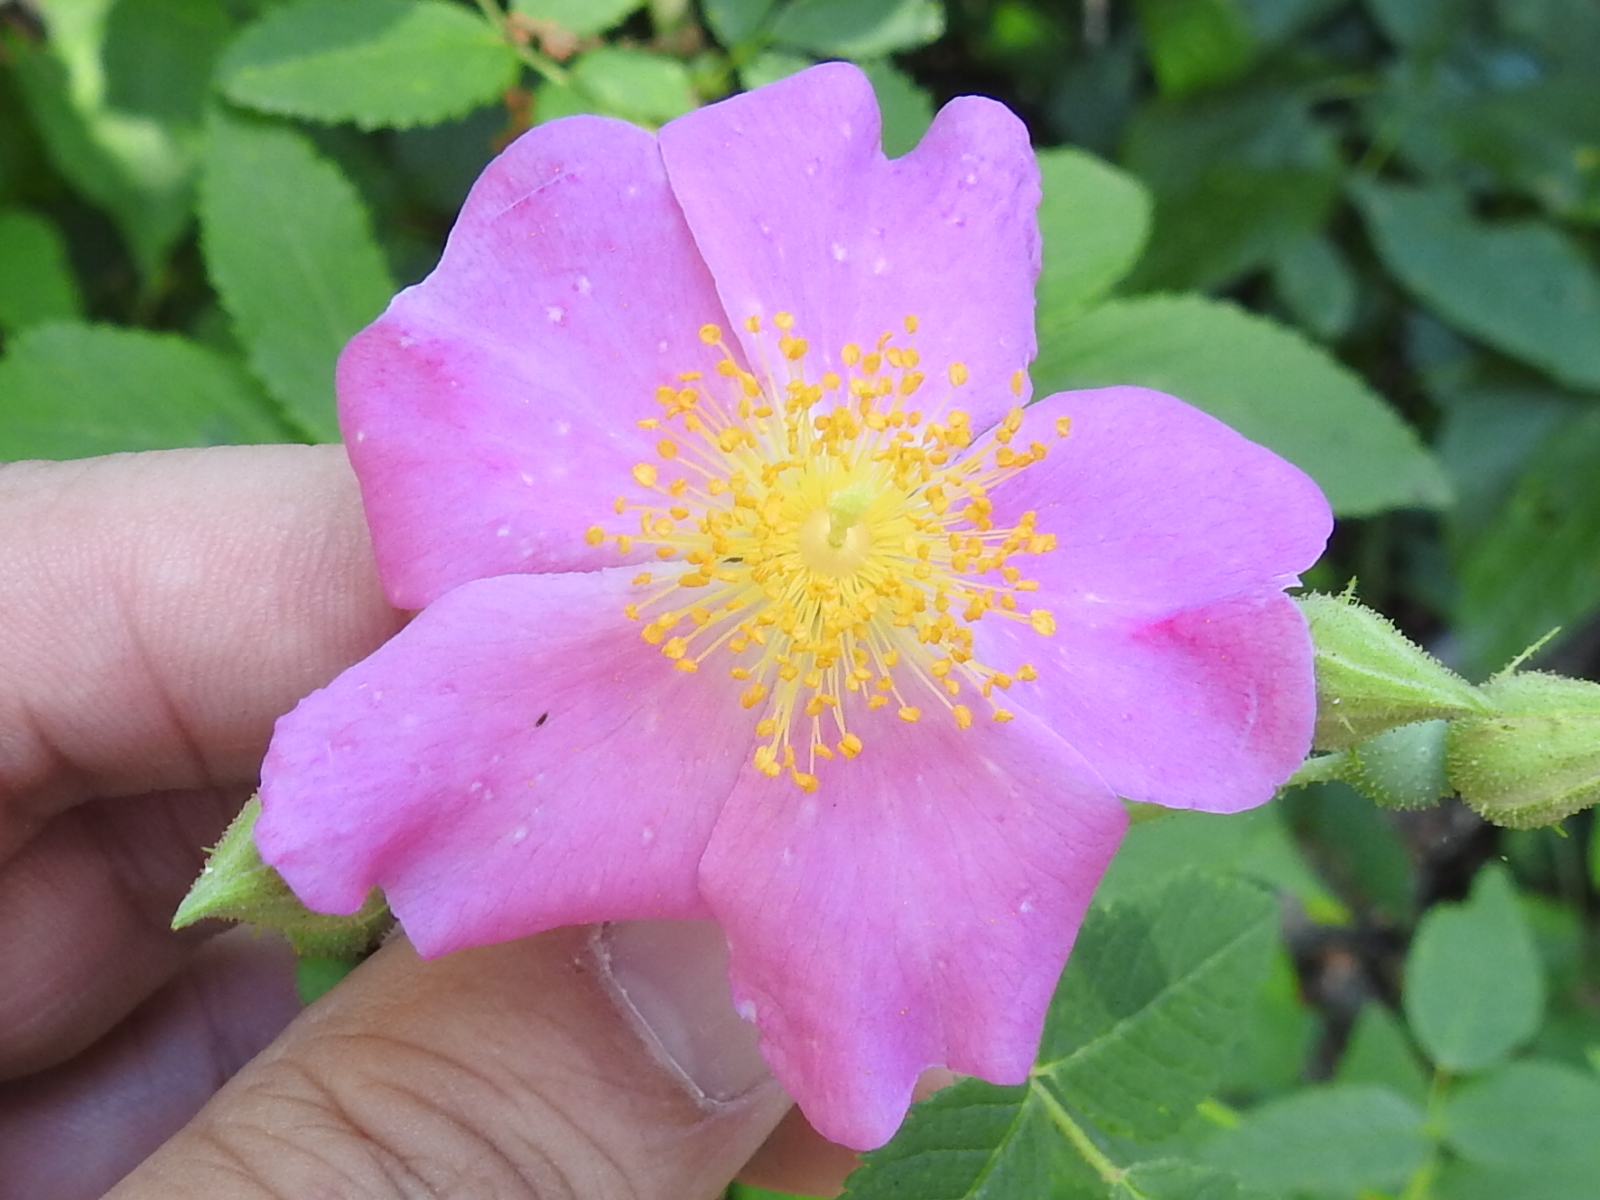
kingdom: Plantae
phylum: Tracheophyta
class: Magnoliopsida
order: Rosales
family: Rosaceae
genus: Rosa
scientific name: Rosa setigera
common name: Prairie rose
